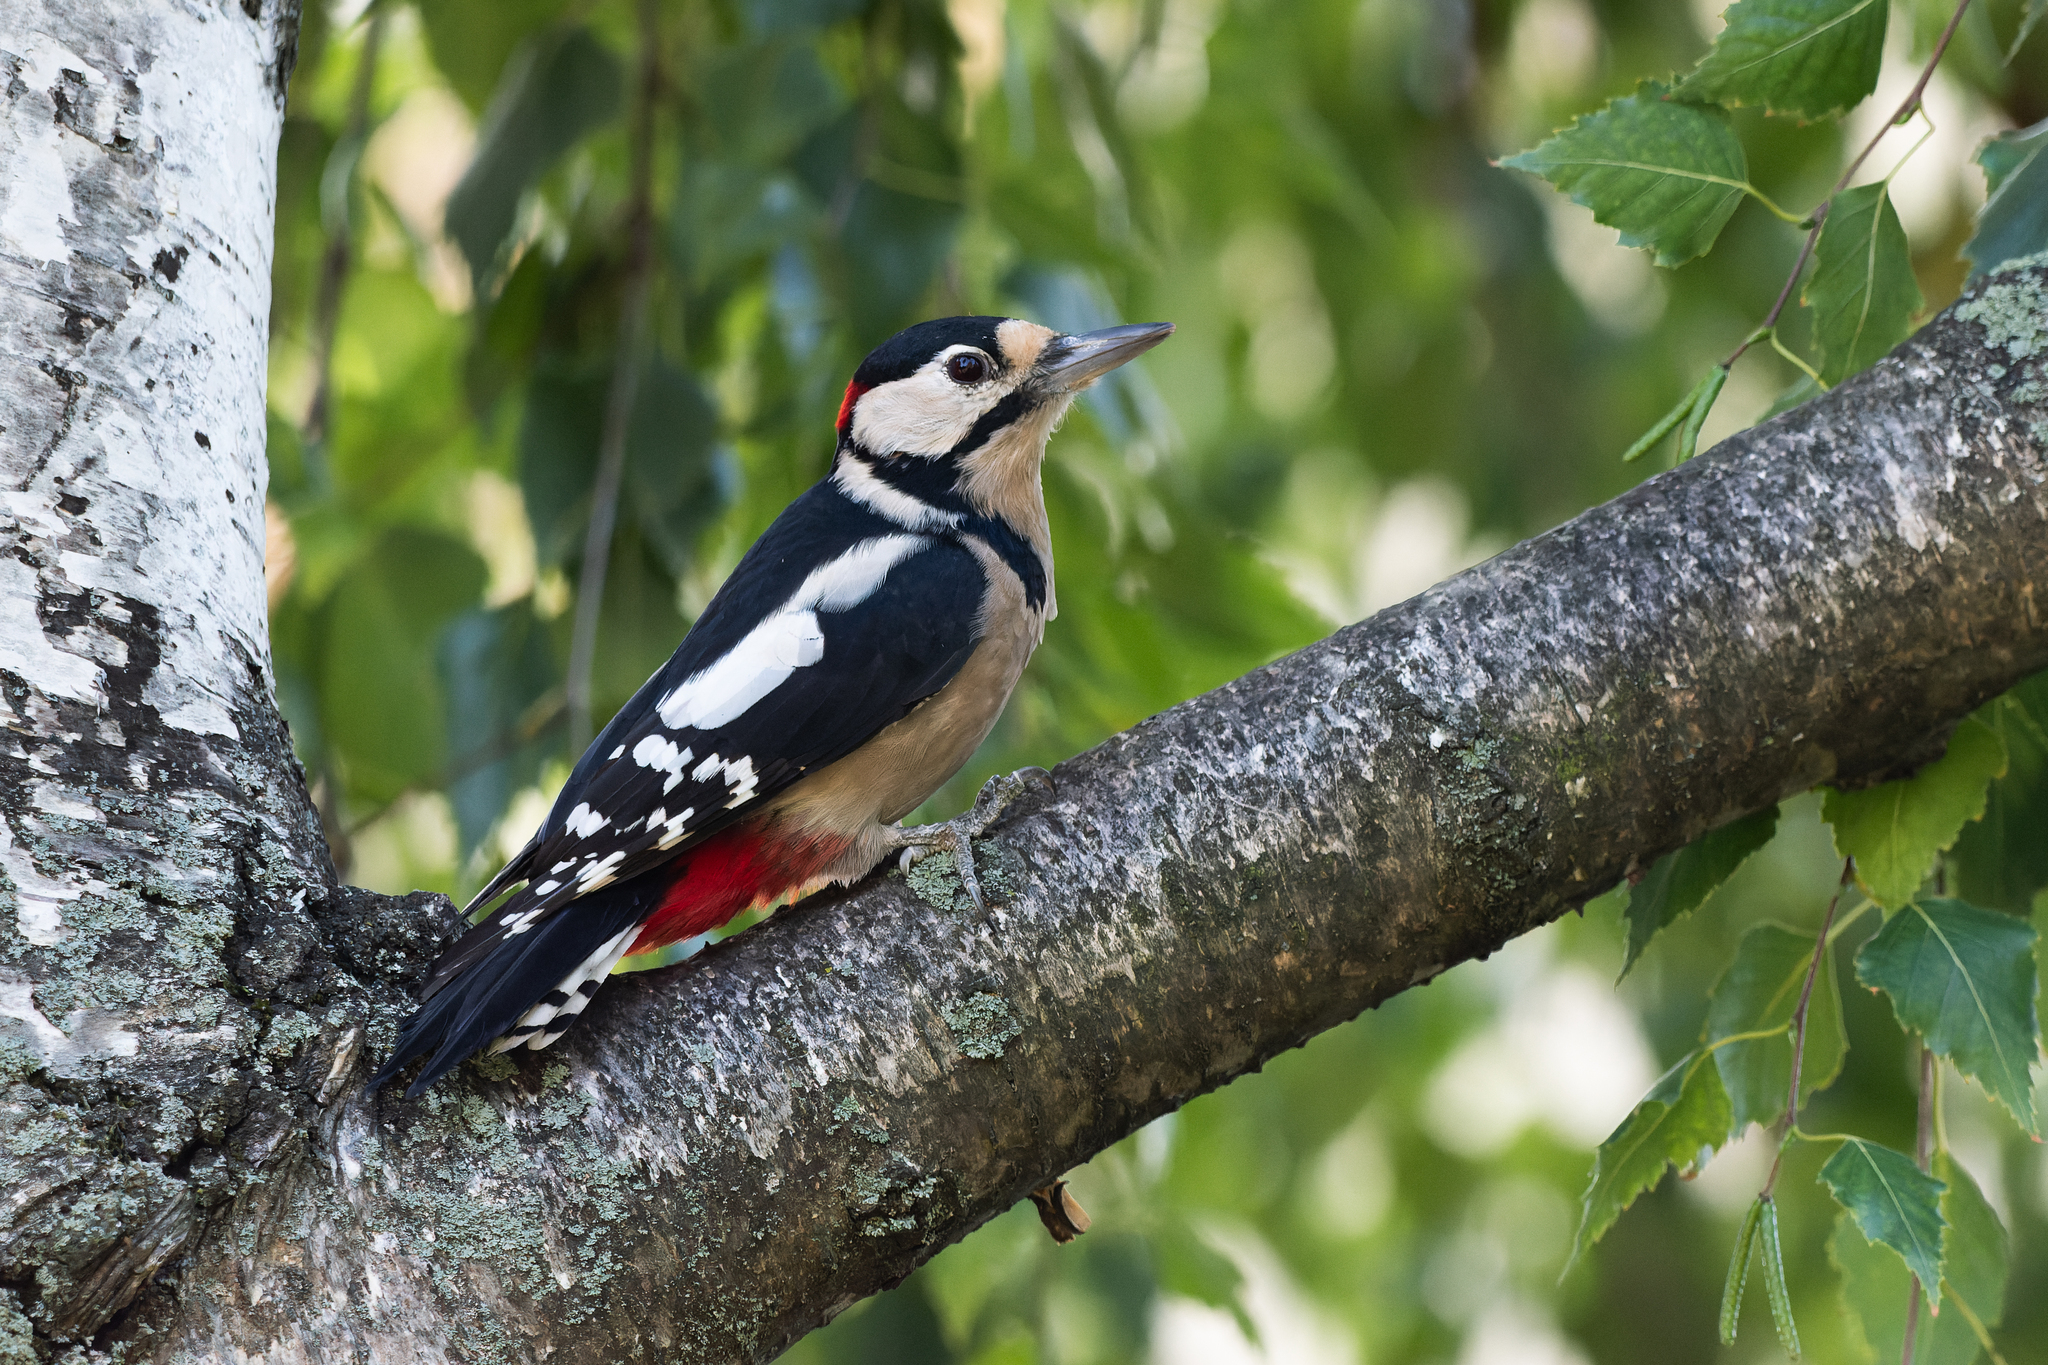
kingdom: Animalia
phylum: Chordata
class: Aves
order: Piciformes
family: Picidae
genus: Dendrocopos
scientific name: Dendrocopos major
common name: Great spotted woodpecker
